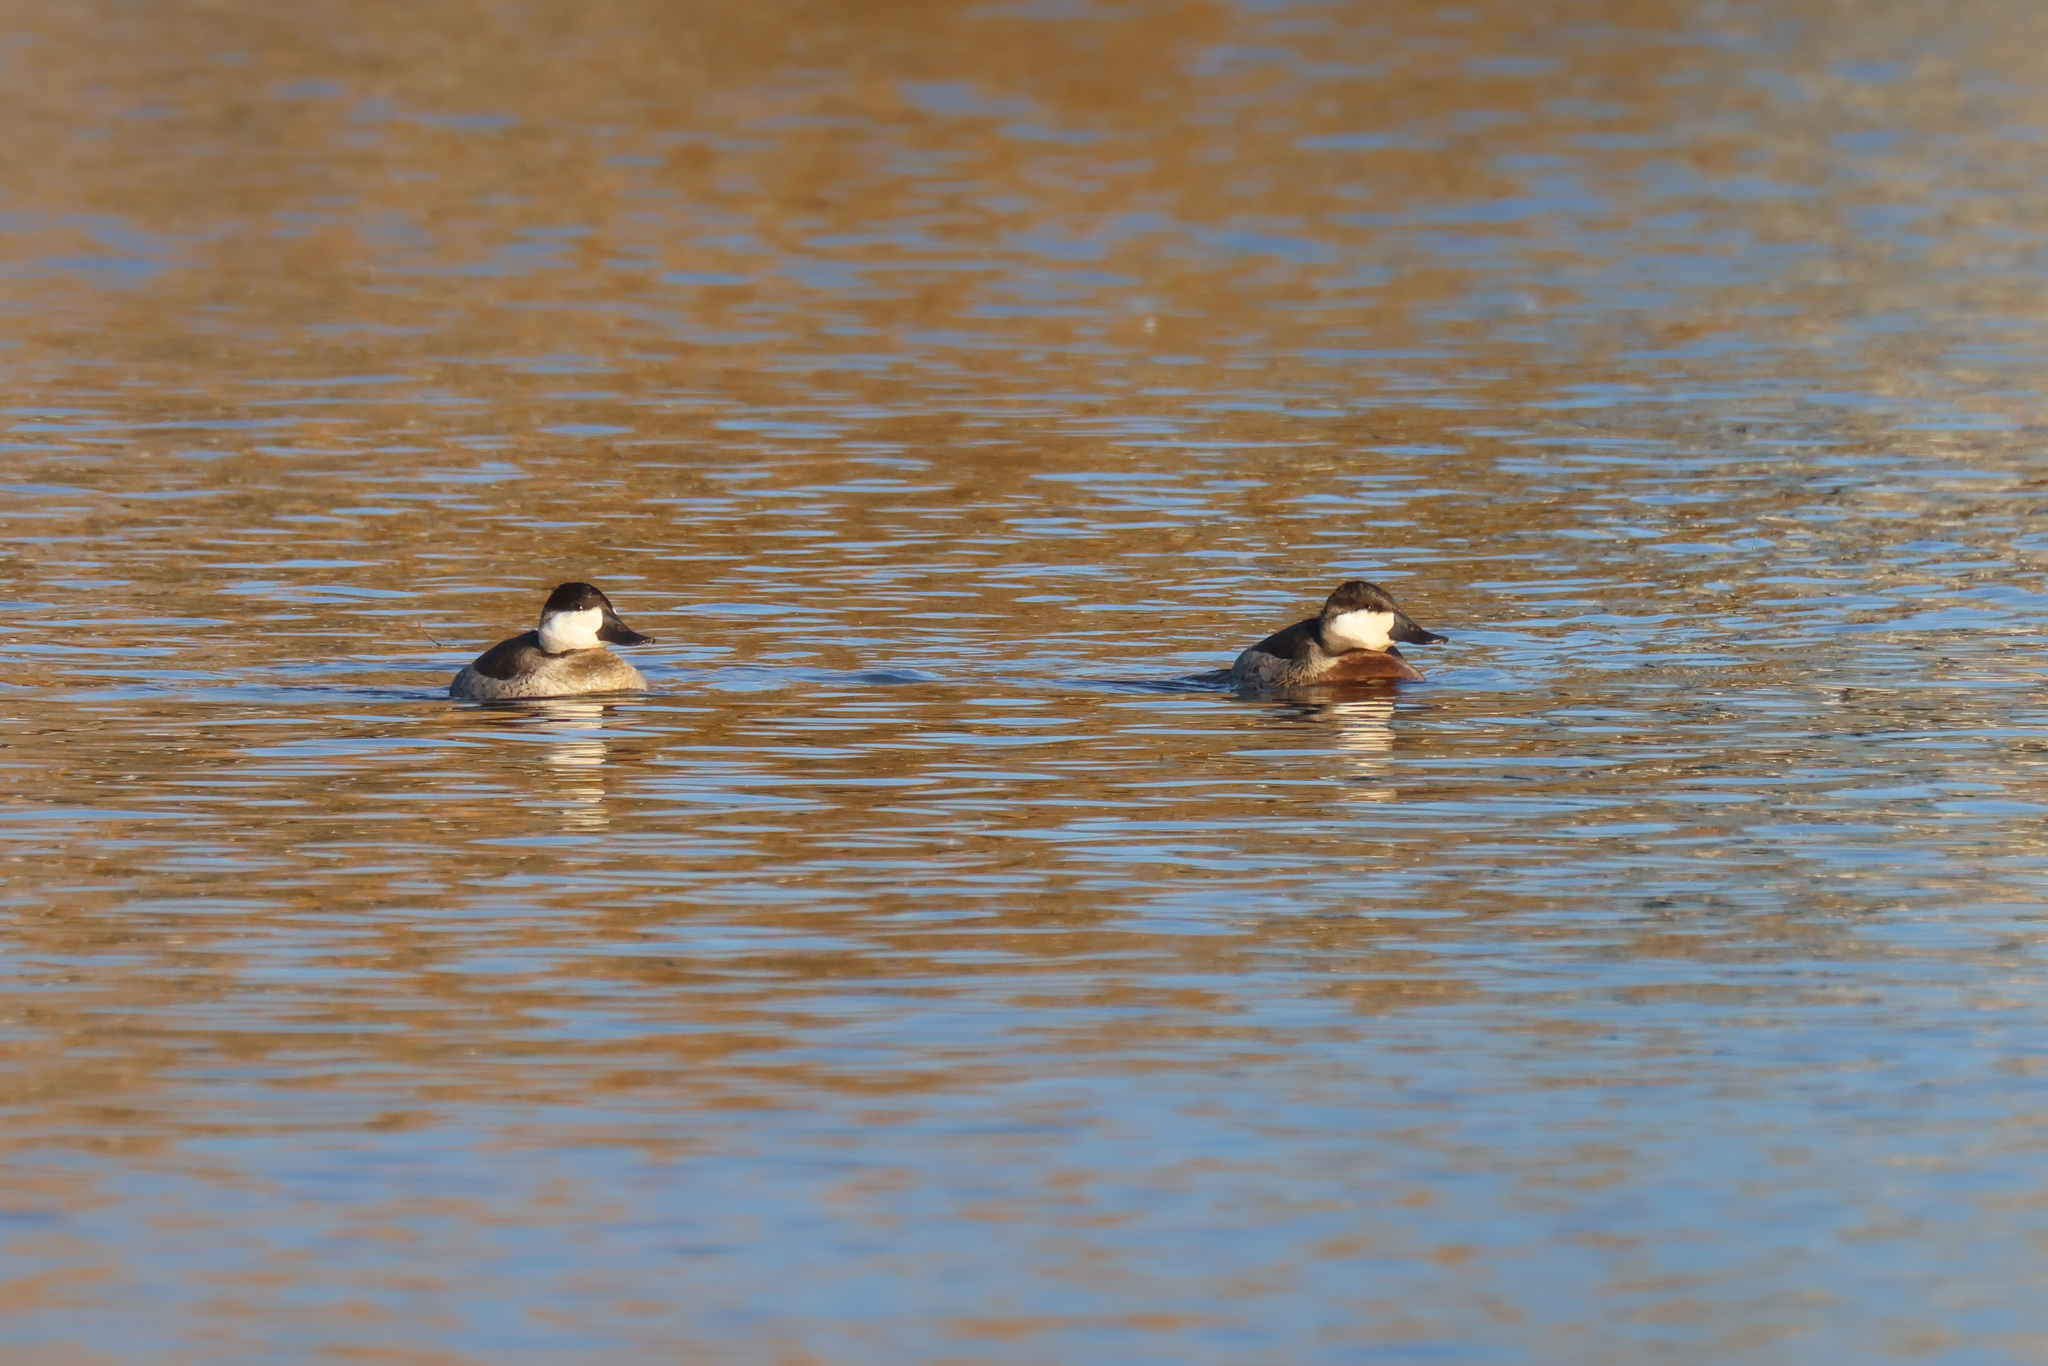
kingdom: Animalia
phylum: Chordata
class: Aves
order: Anseriformes
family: Anatidae
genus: Oxyura
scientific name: Oxyura jamaicensis
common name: Ruddy duck
